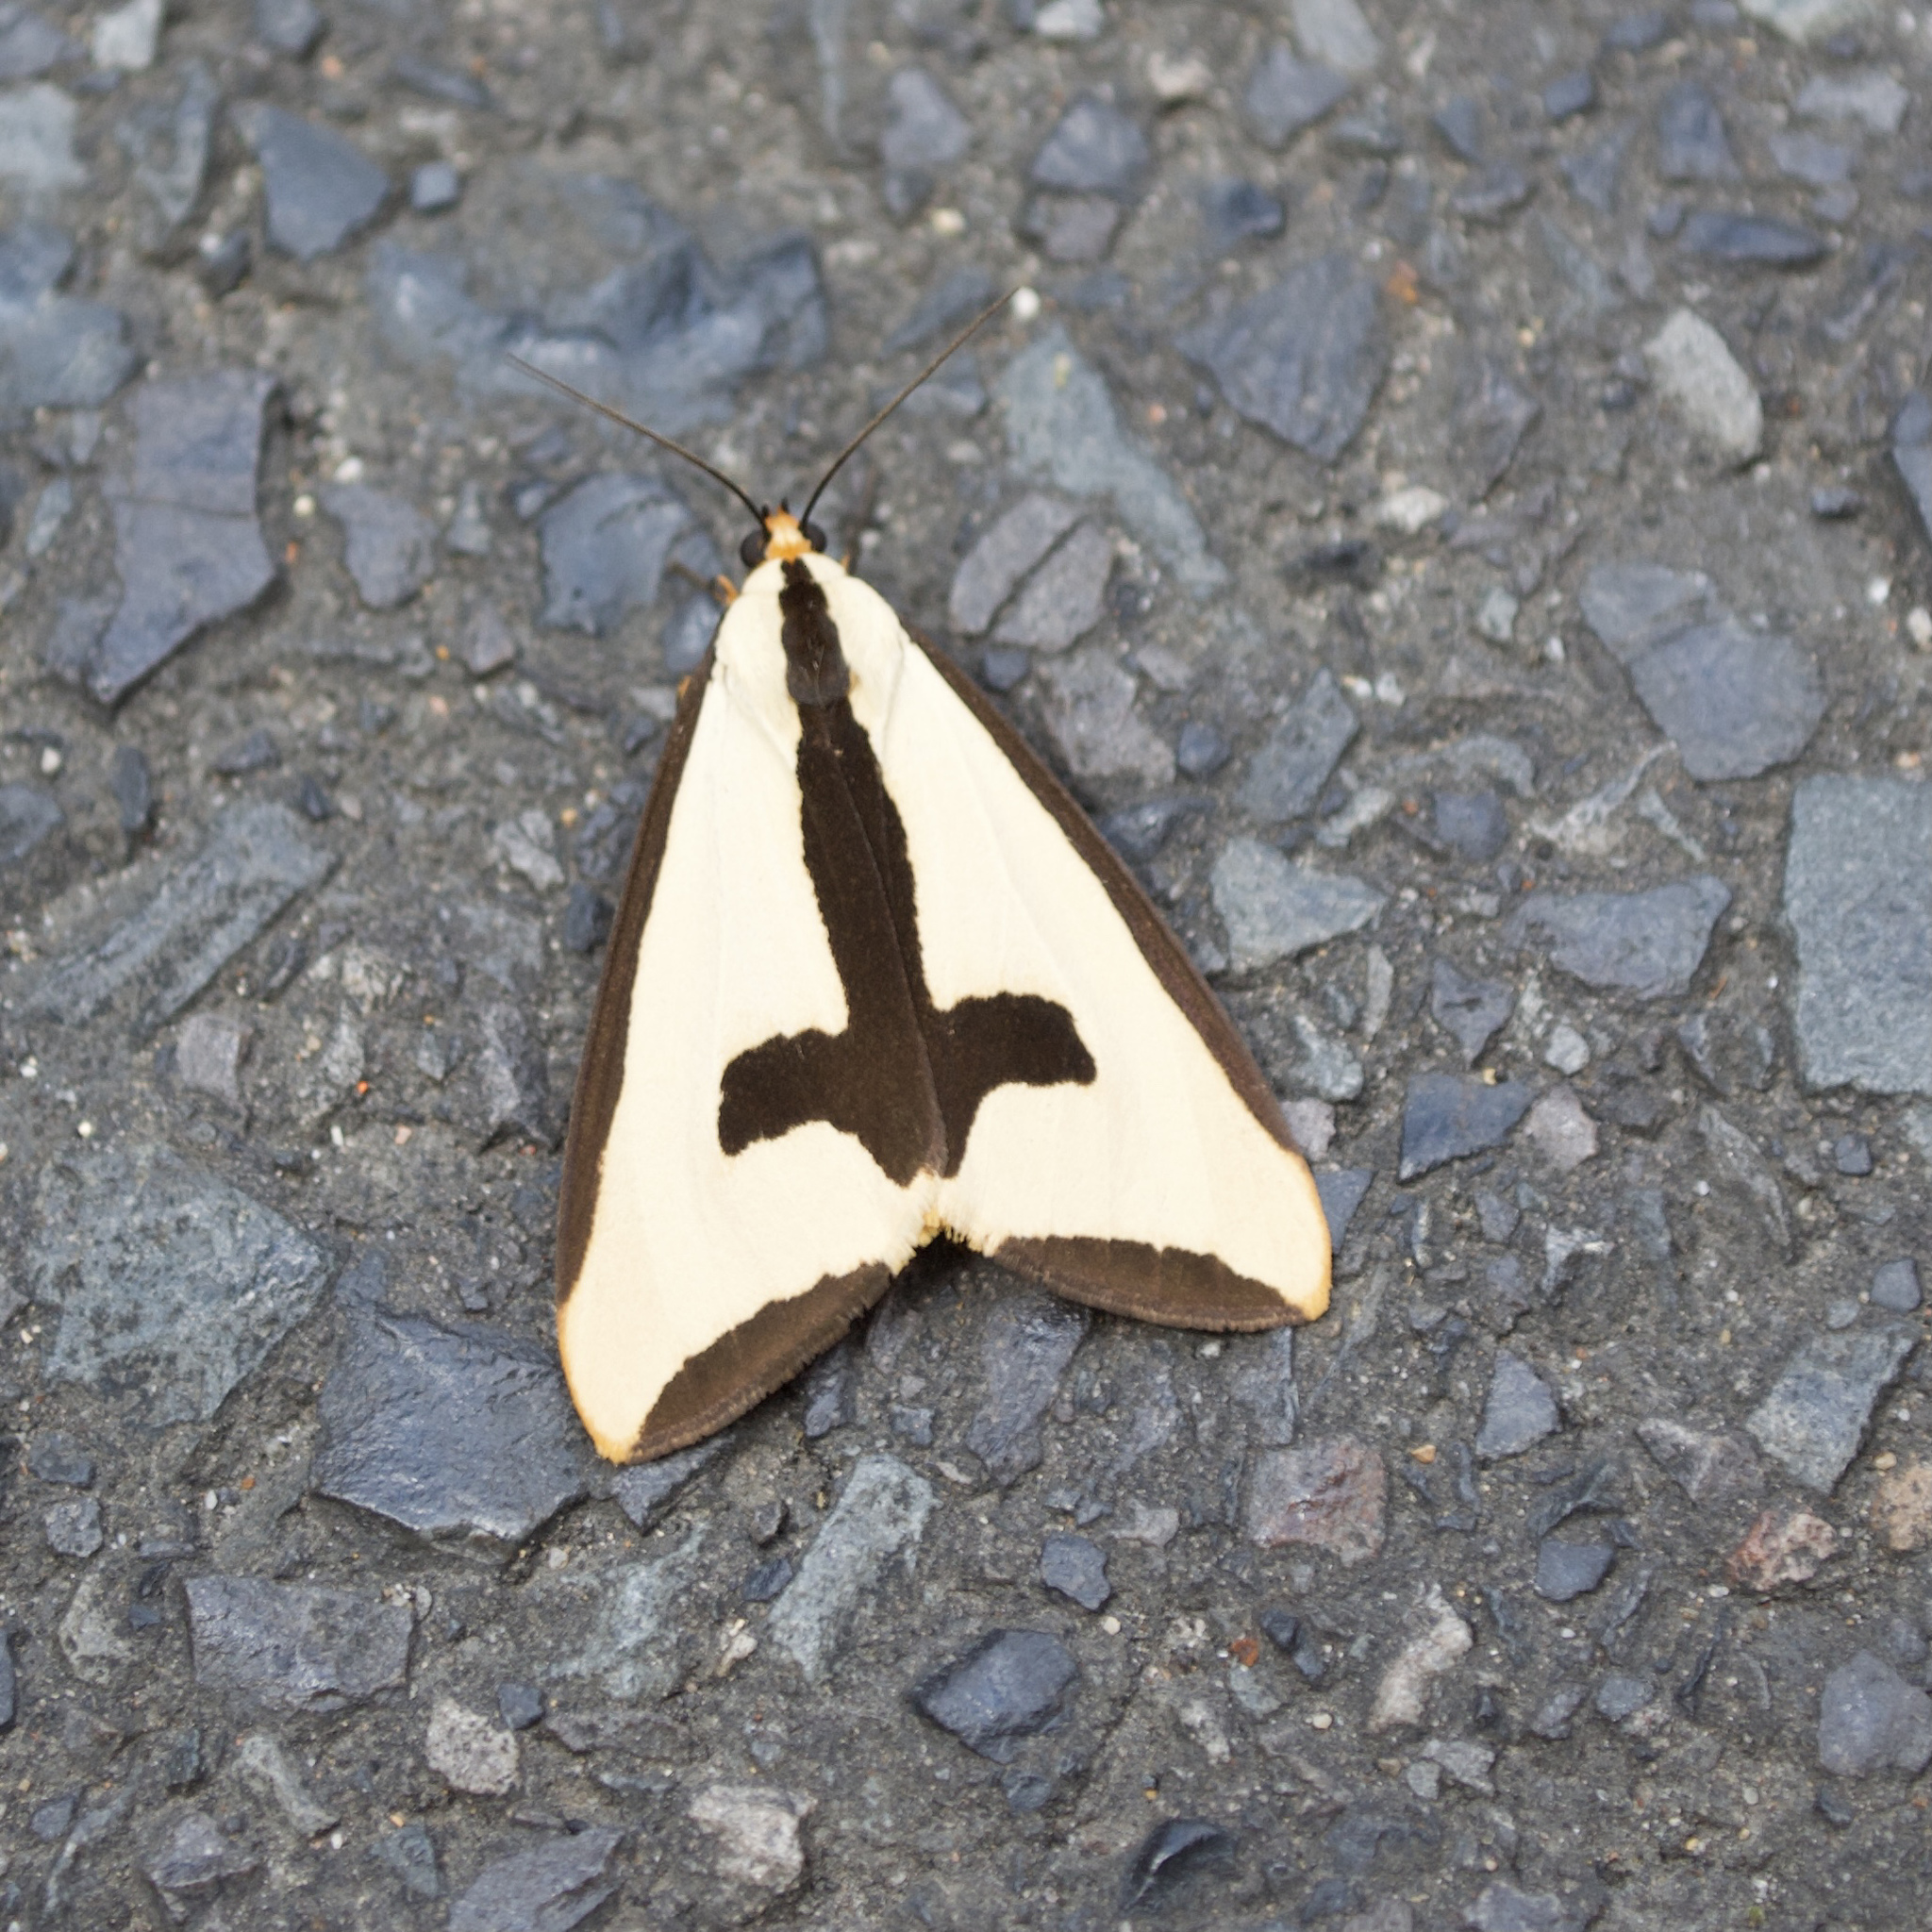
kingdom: Animalia
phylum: Arthropoda
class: Insecta
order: Lepidoptera
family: Erebidae
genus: Haploa
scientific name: Haploa clymene
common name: Clymene moth
